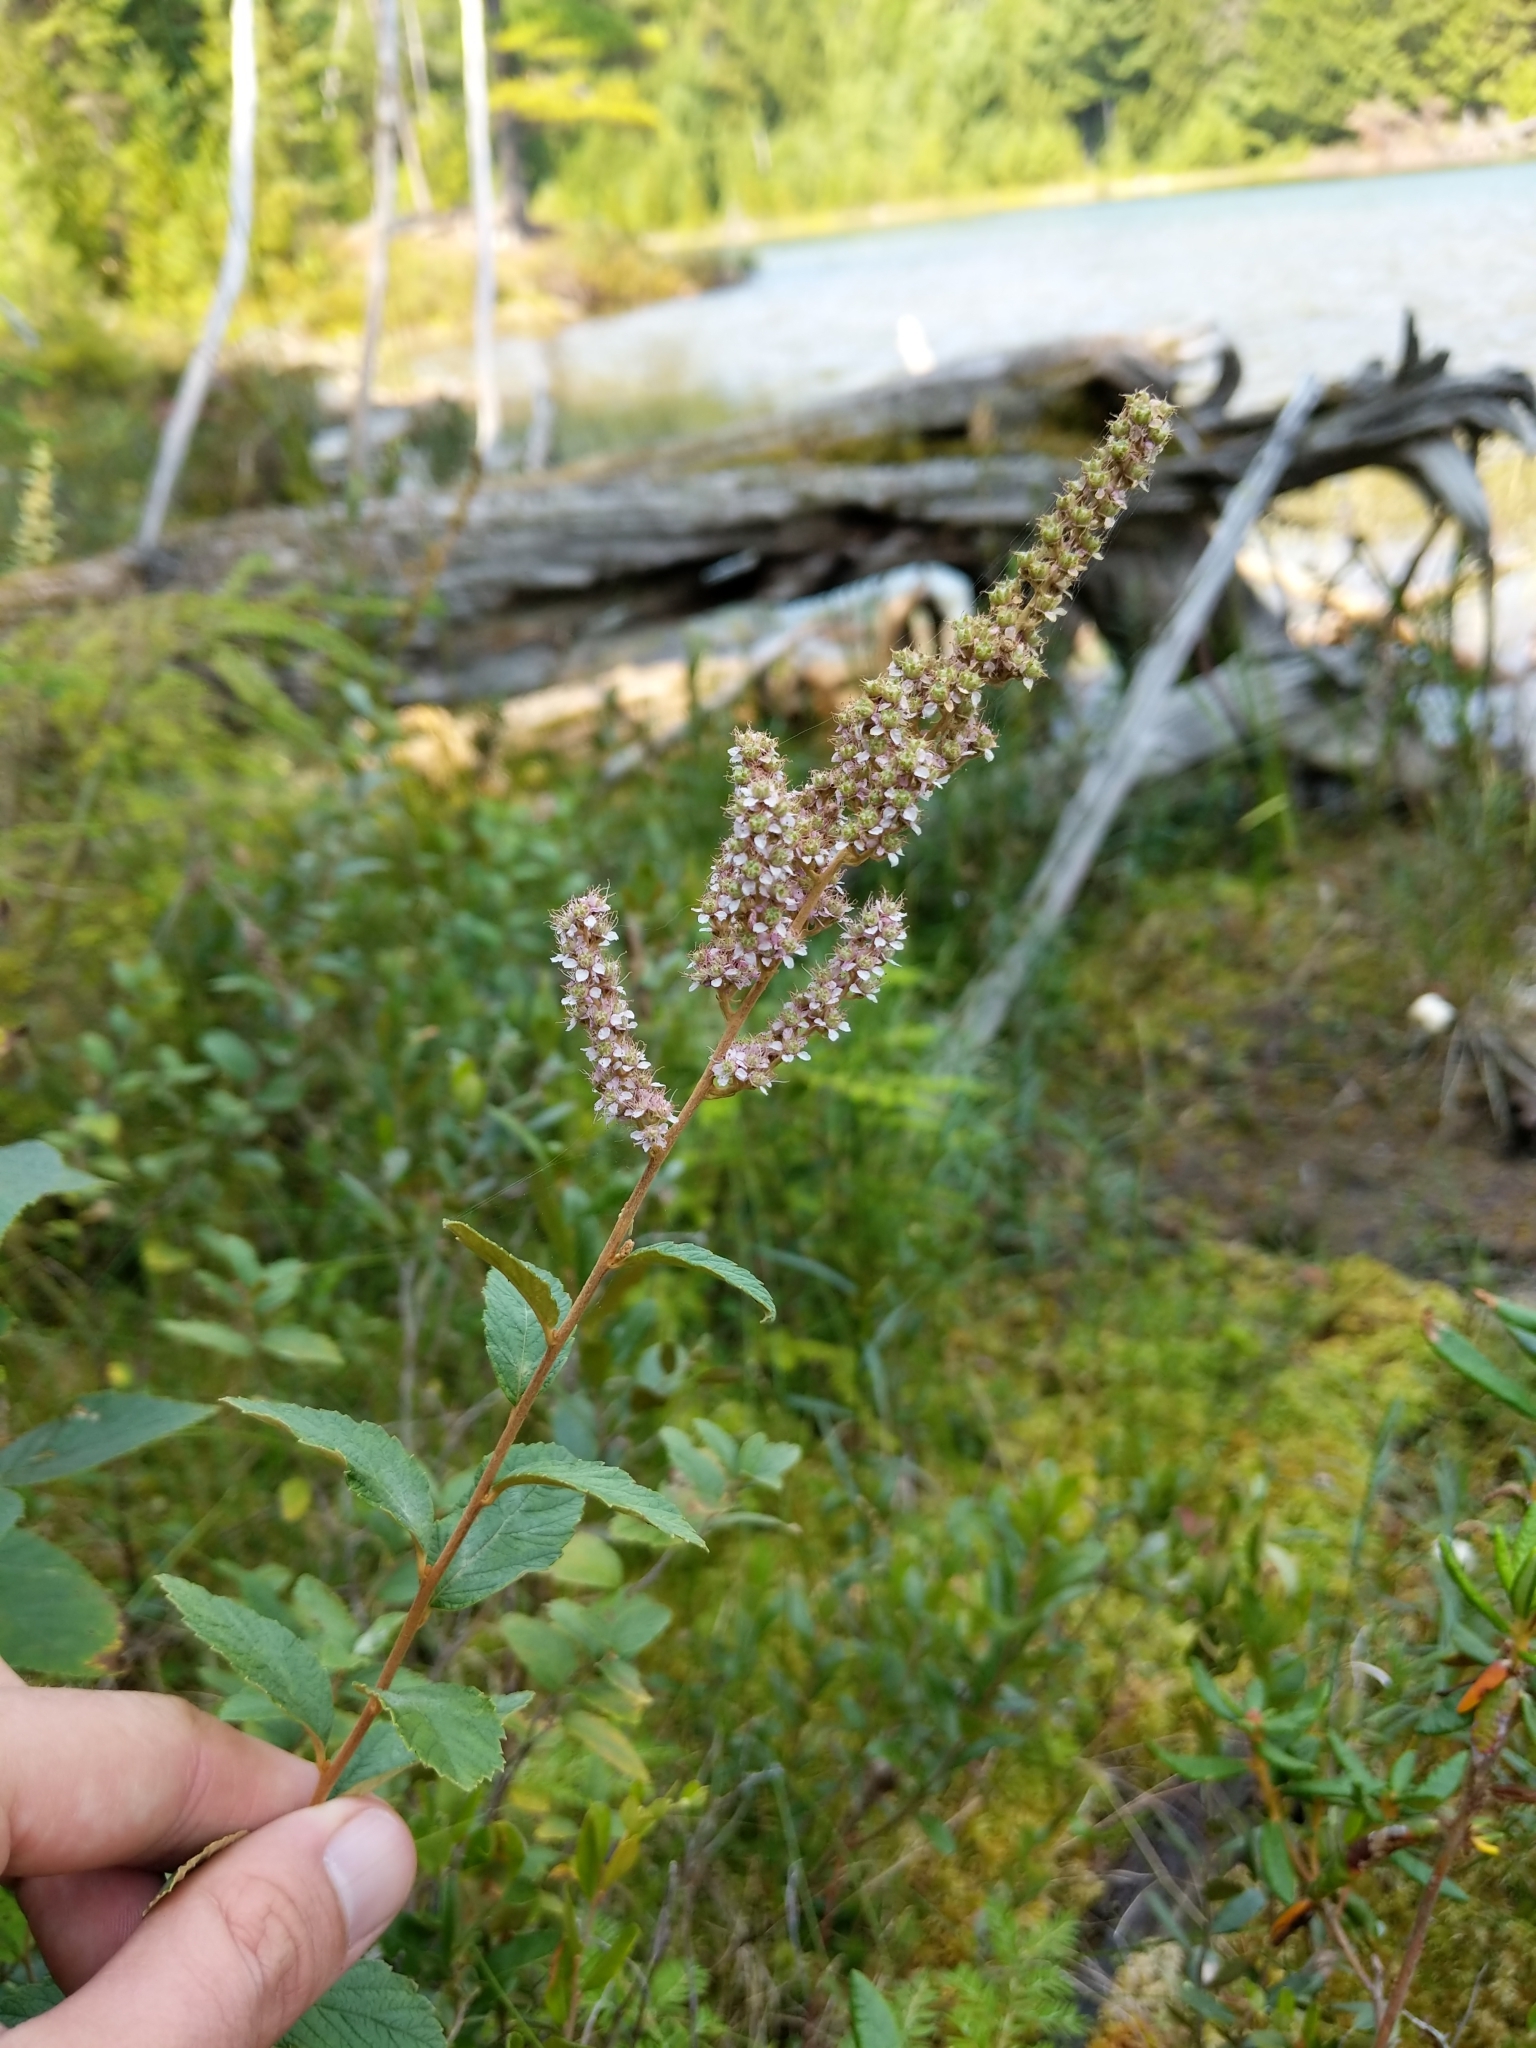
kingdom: Plantae
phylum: Tracheophyta
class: Magnoliopsida
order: Rosales
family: Rosaceae
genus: Spiraea
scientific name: Spiraea tomentosa
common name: Hardhack
